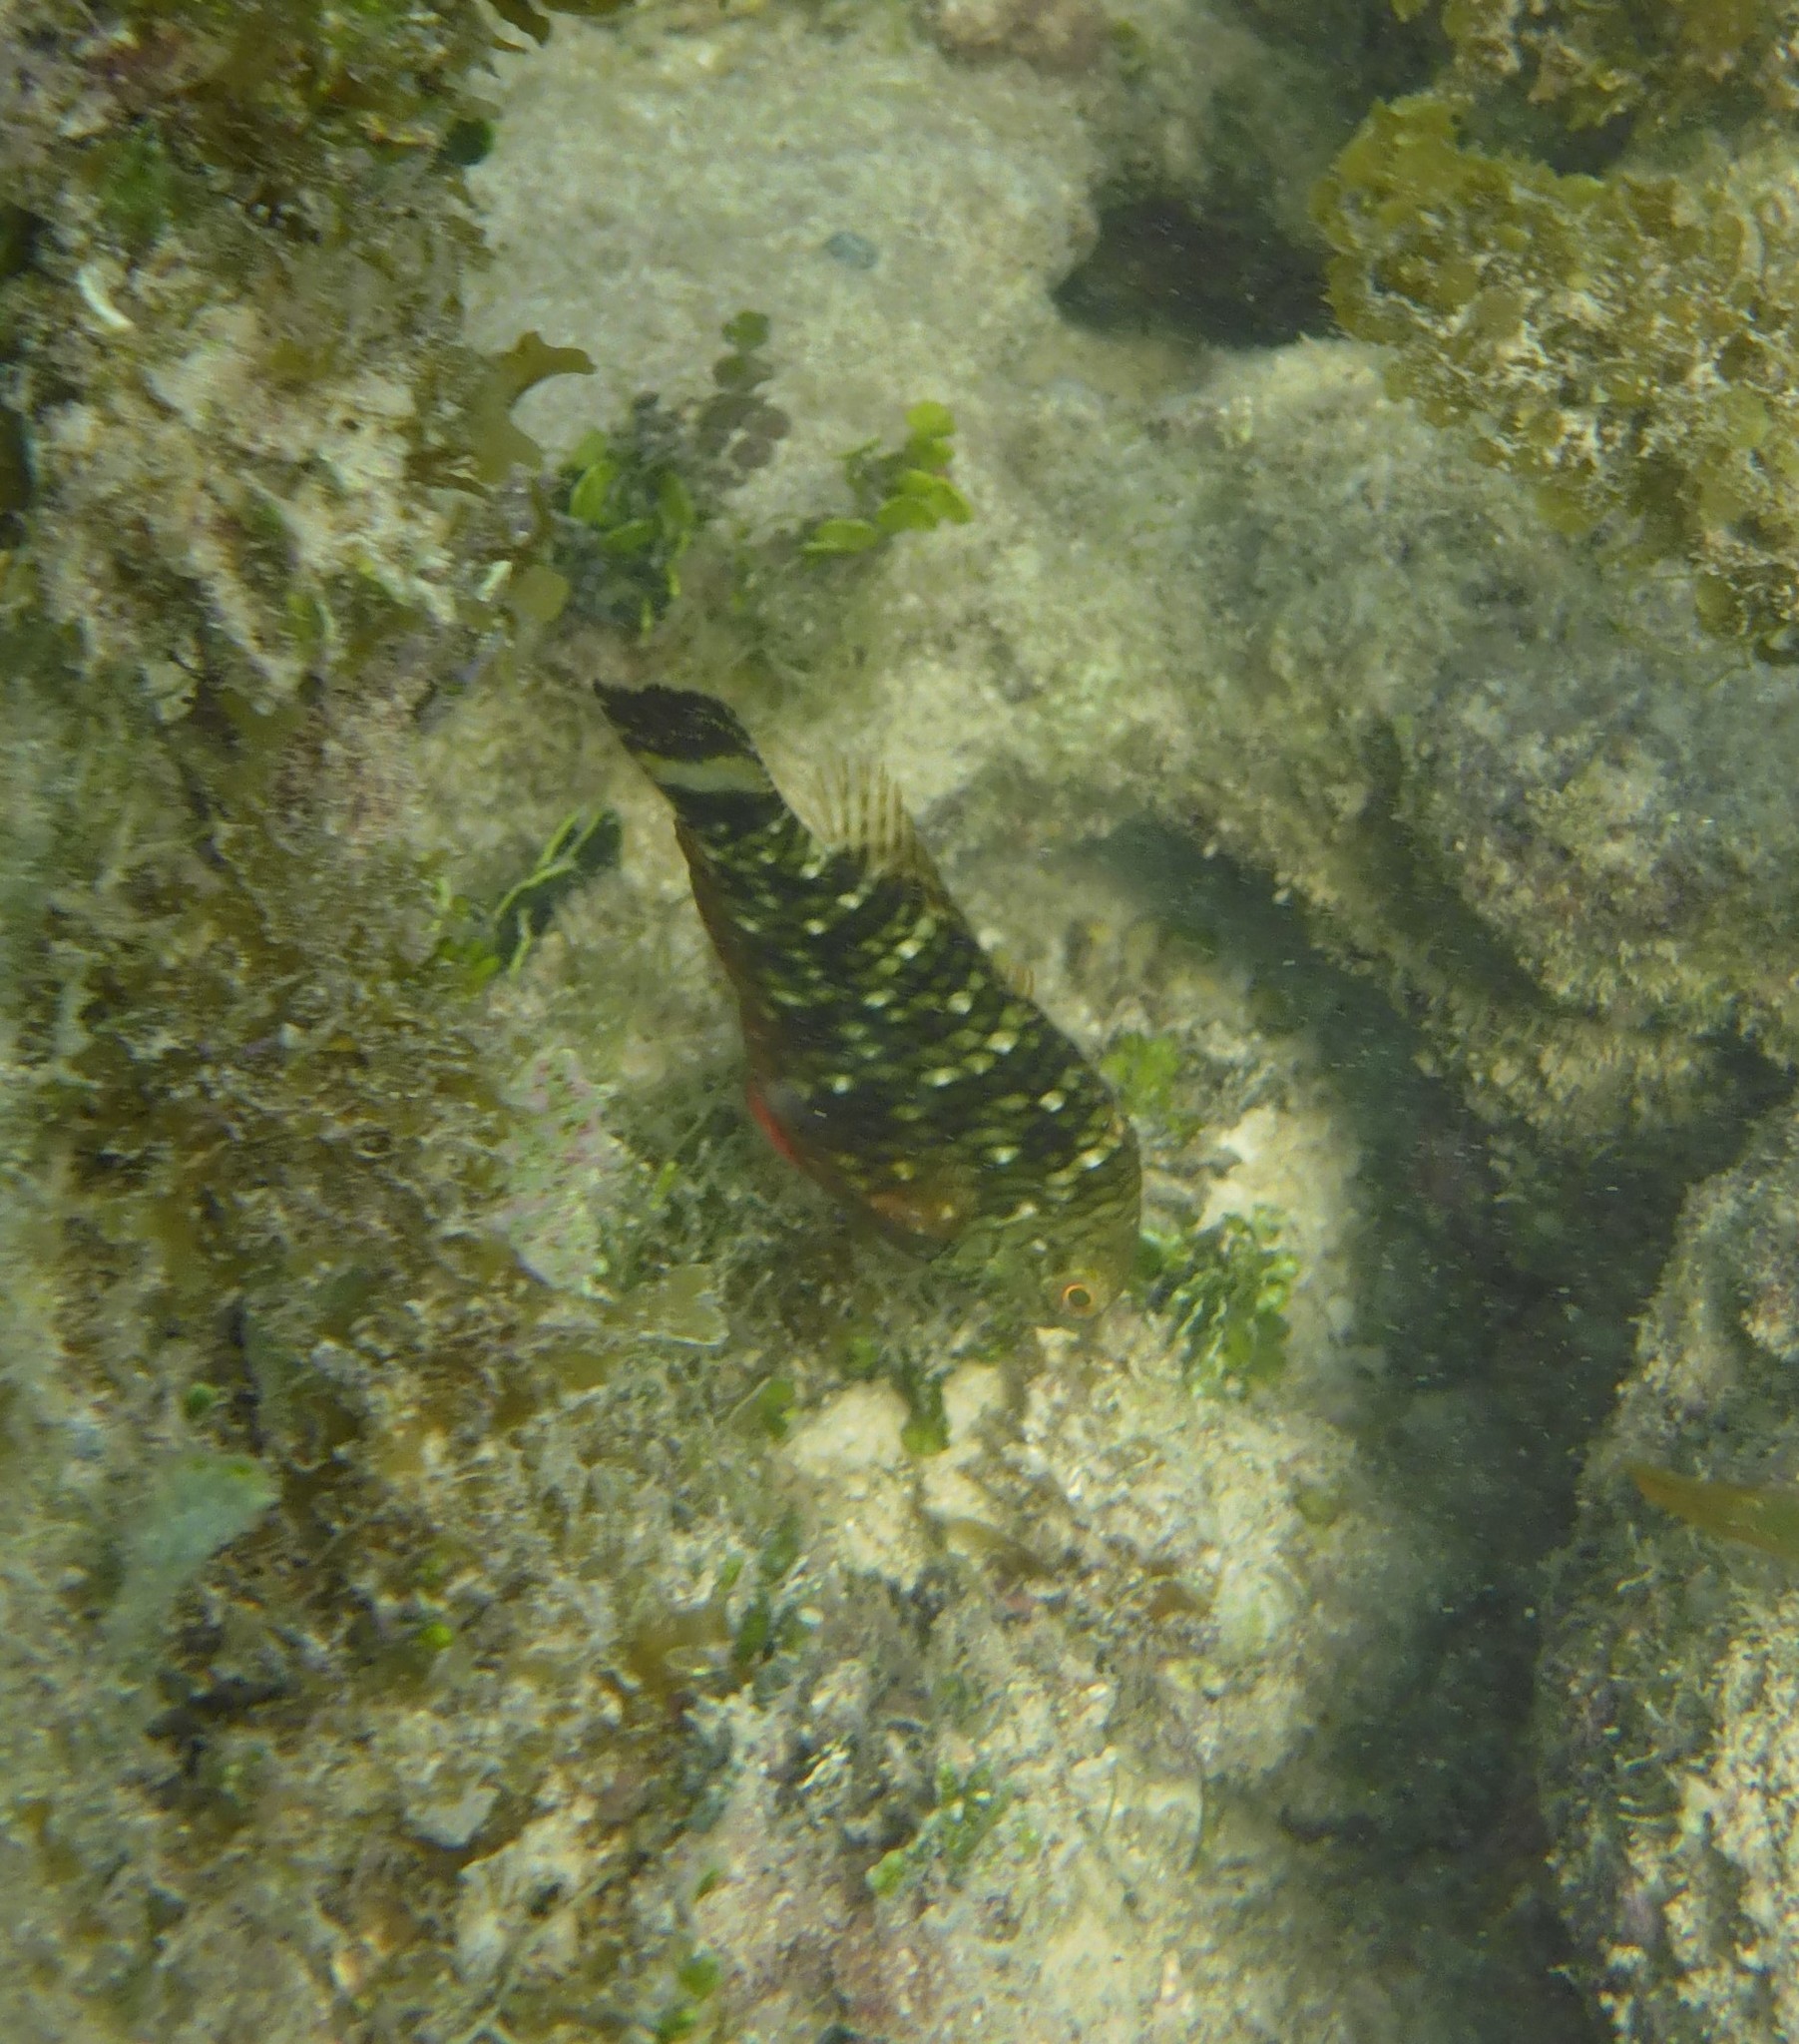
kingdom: Animalia
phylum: Chordata
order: Perciformes
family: Scaridae
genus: Sparisoma
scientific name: Sparisoma viride
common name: Stoplight parrotfish
